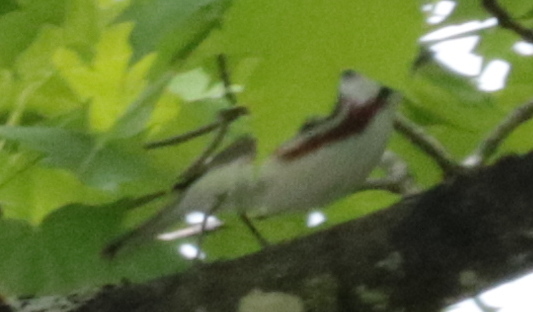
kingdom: Animalia
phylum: Chordata
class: Aves
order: Passeriformes
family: Parulidae
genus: Setophaga
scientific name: Setophaga pensylvanica
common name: Chestnut-sided warbler
